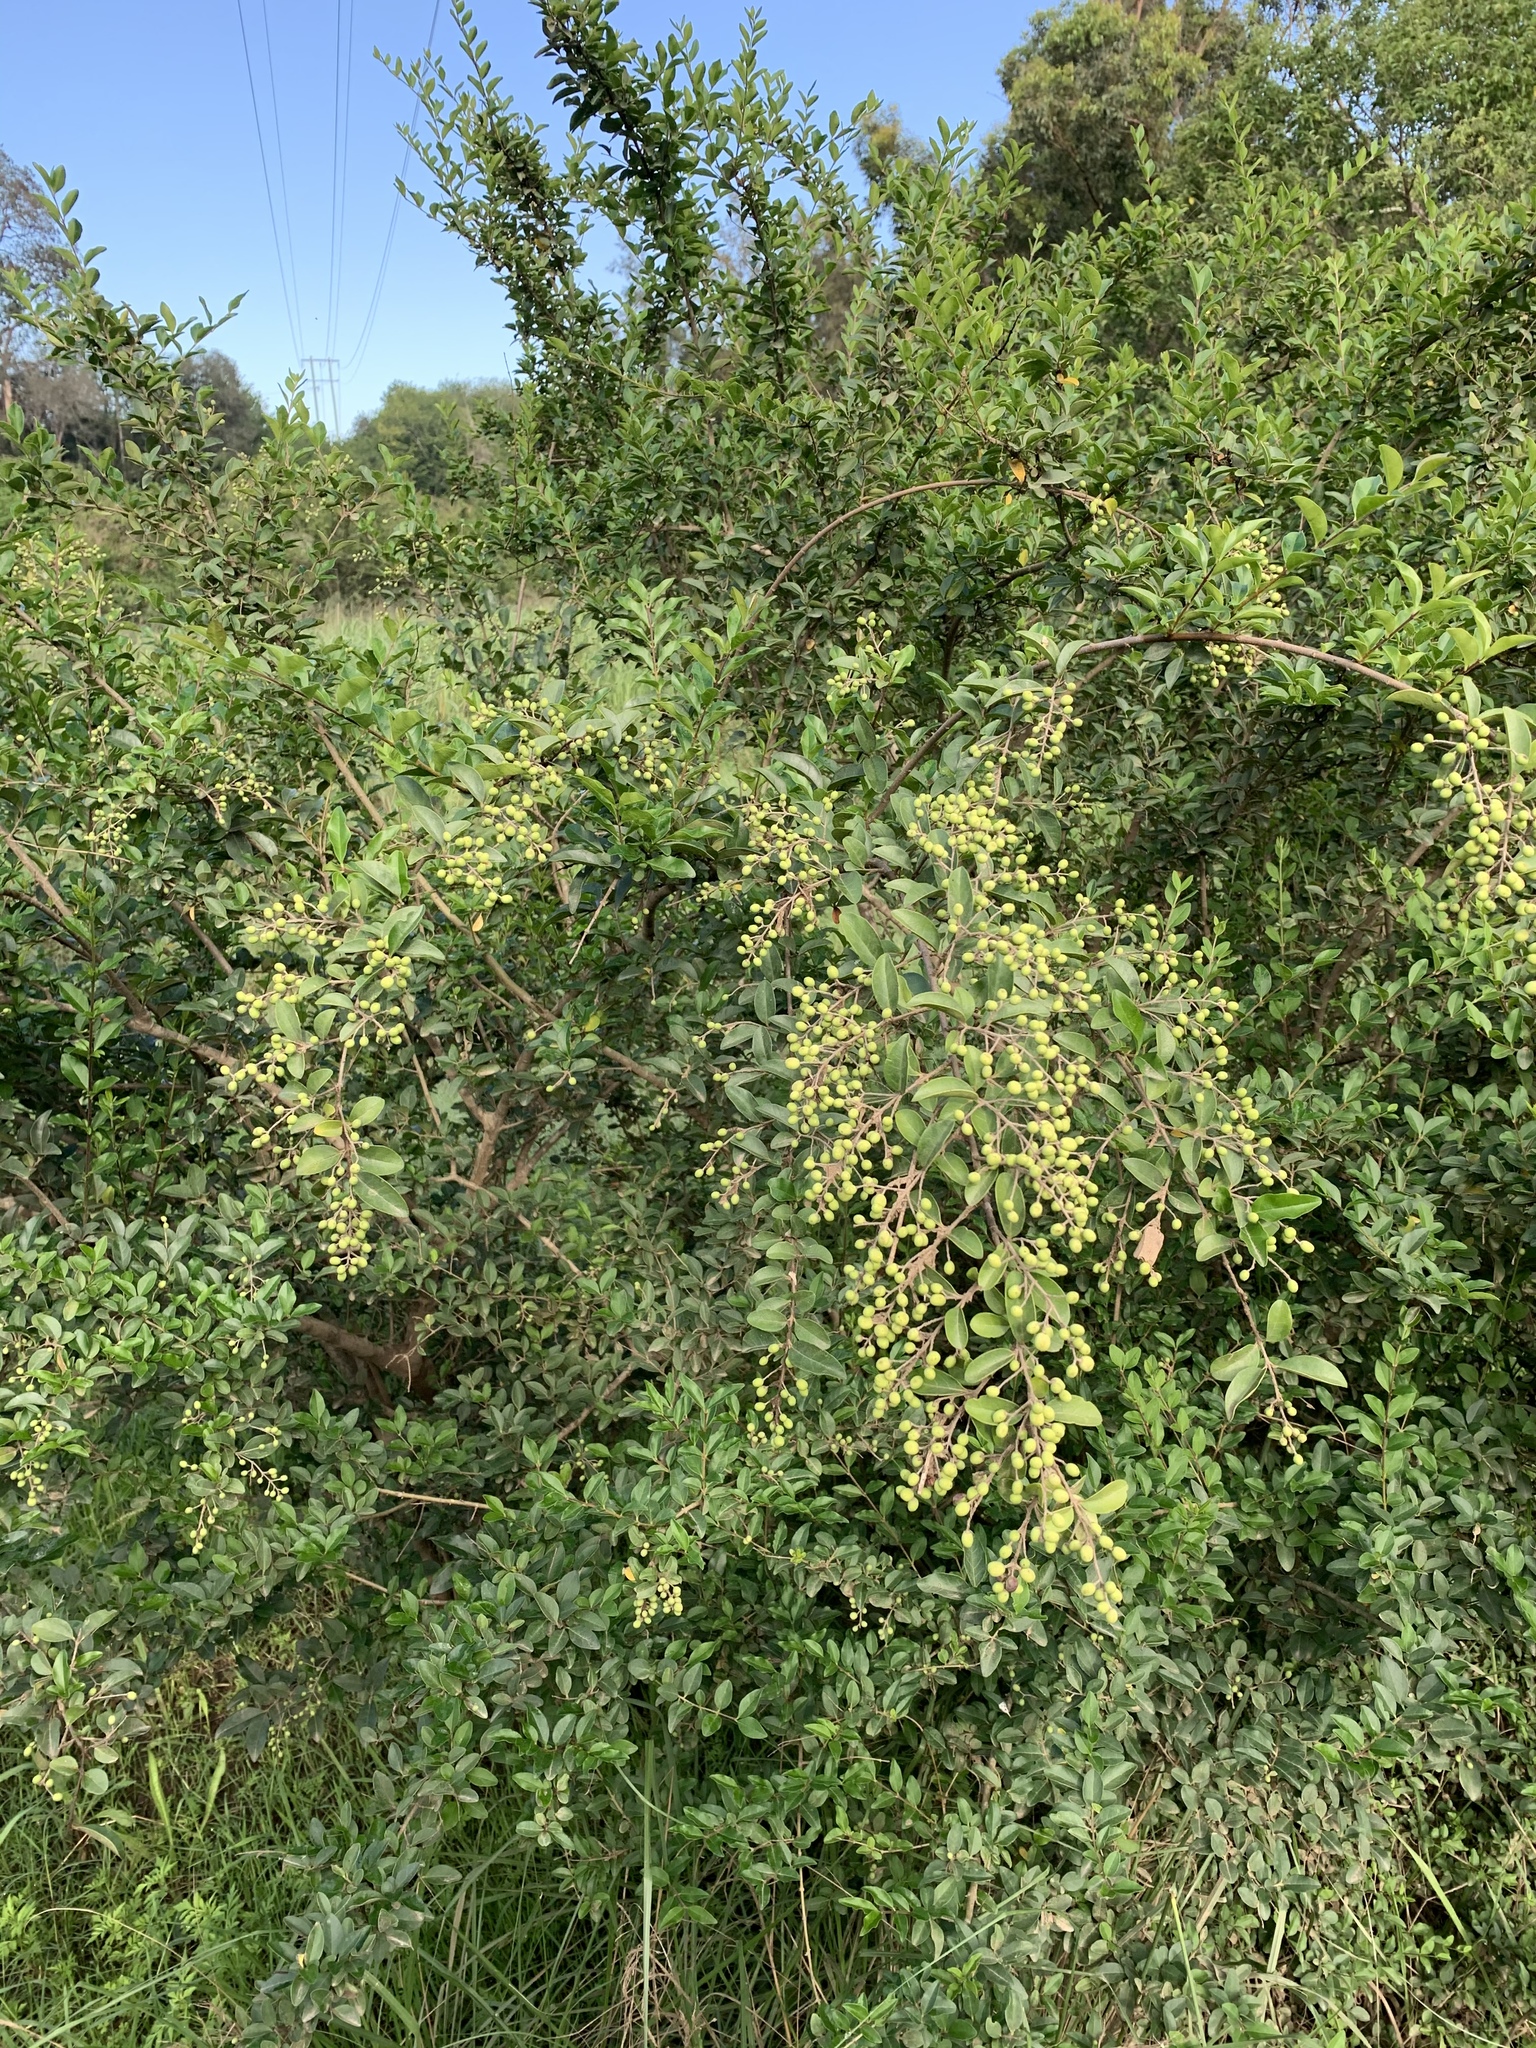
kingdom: Plantae
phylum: Tracheophyta
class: Magnoliopsida
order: Lamiales
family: Oleaceae
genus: Ligustrum
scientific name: Ligustrum sinense
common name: Chinese privet
